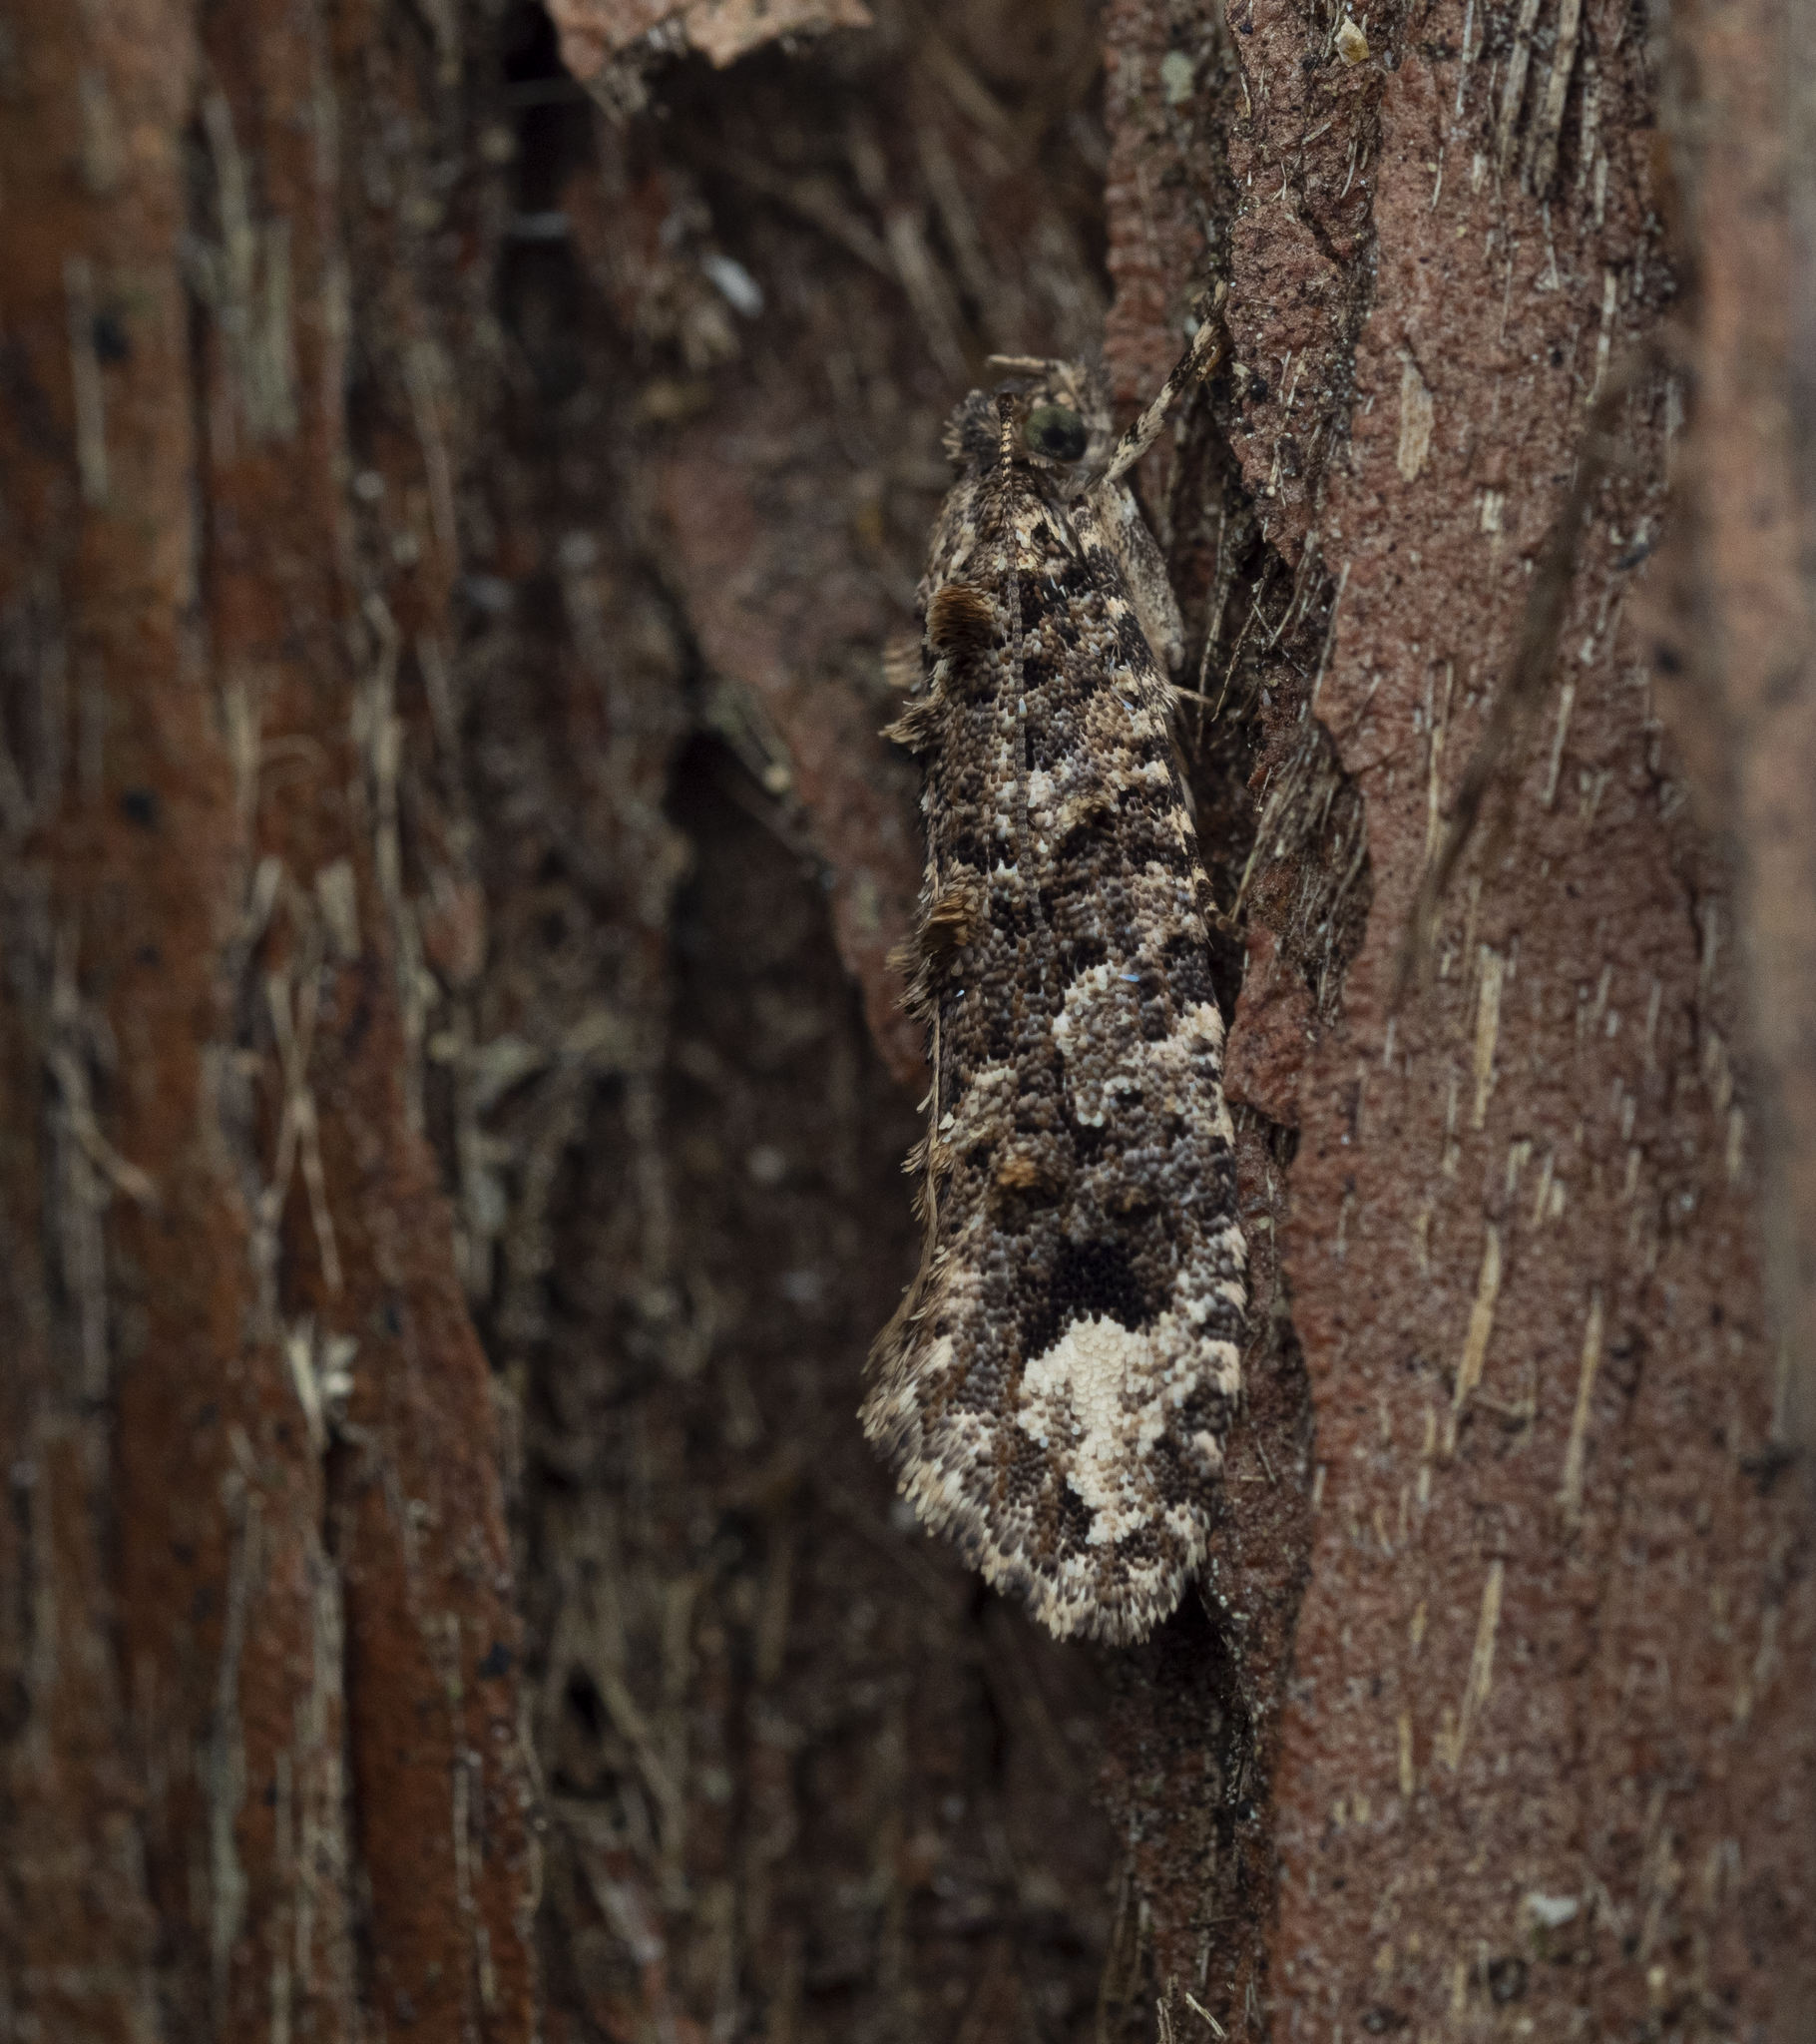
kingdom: Animalia
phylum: Arthropoda
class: Insecta
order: Lepidoptera
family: Tineidae
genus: Lysiphragma
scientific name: Lysiphragma epixyla
